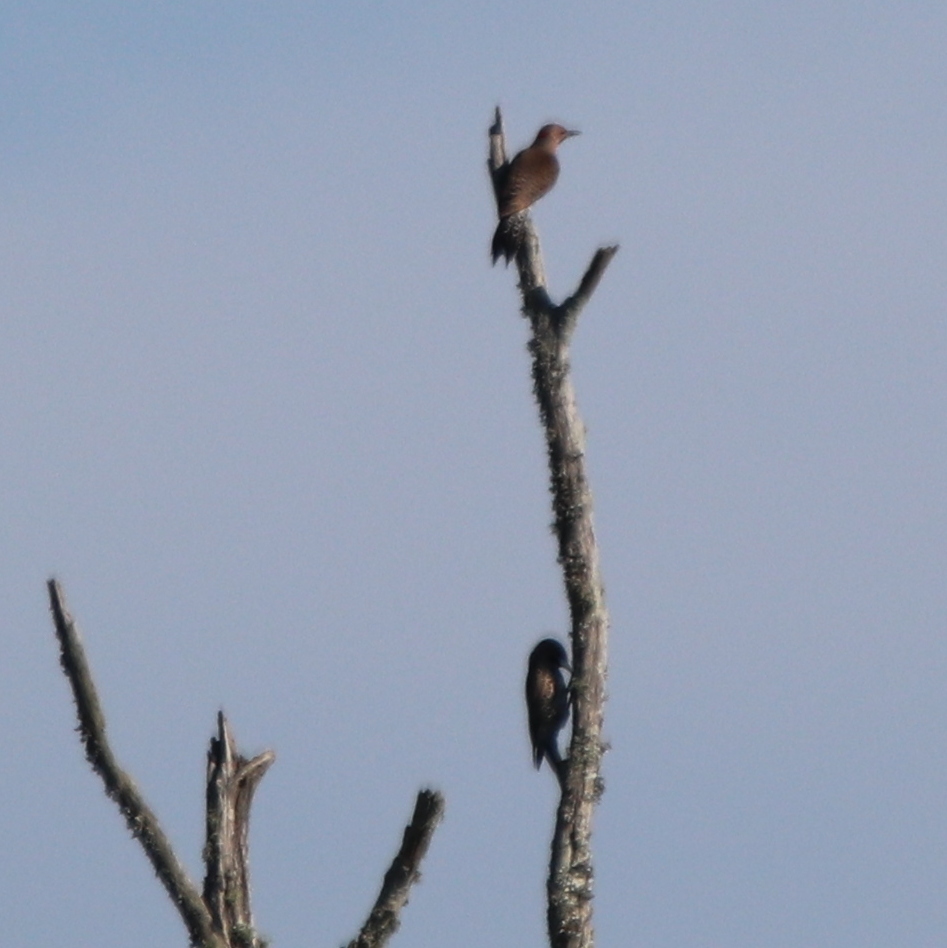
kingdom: Animalia
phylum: Chordata
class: Aves
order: Piciformes
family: Picidae
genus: Colaptes
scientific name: Colaptes auratus
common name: Northern flicker
